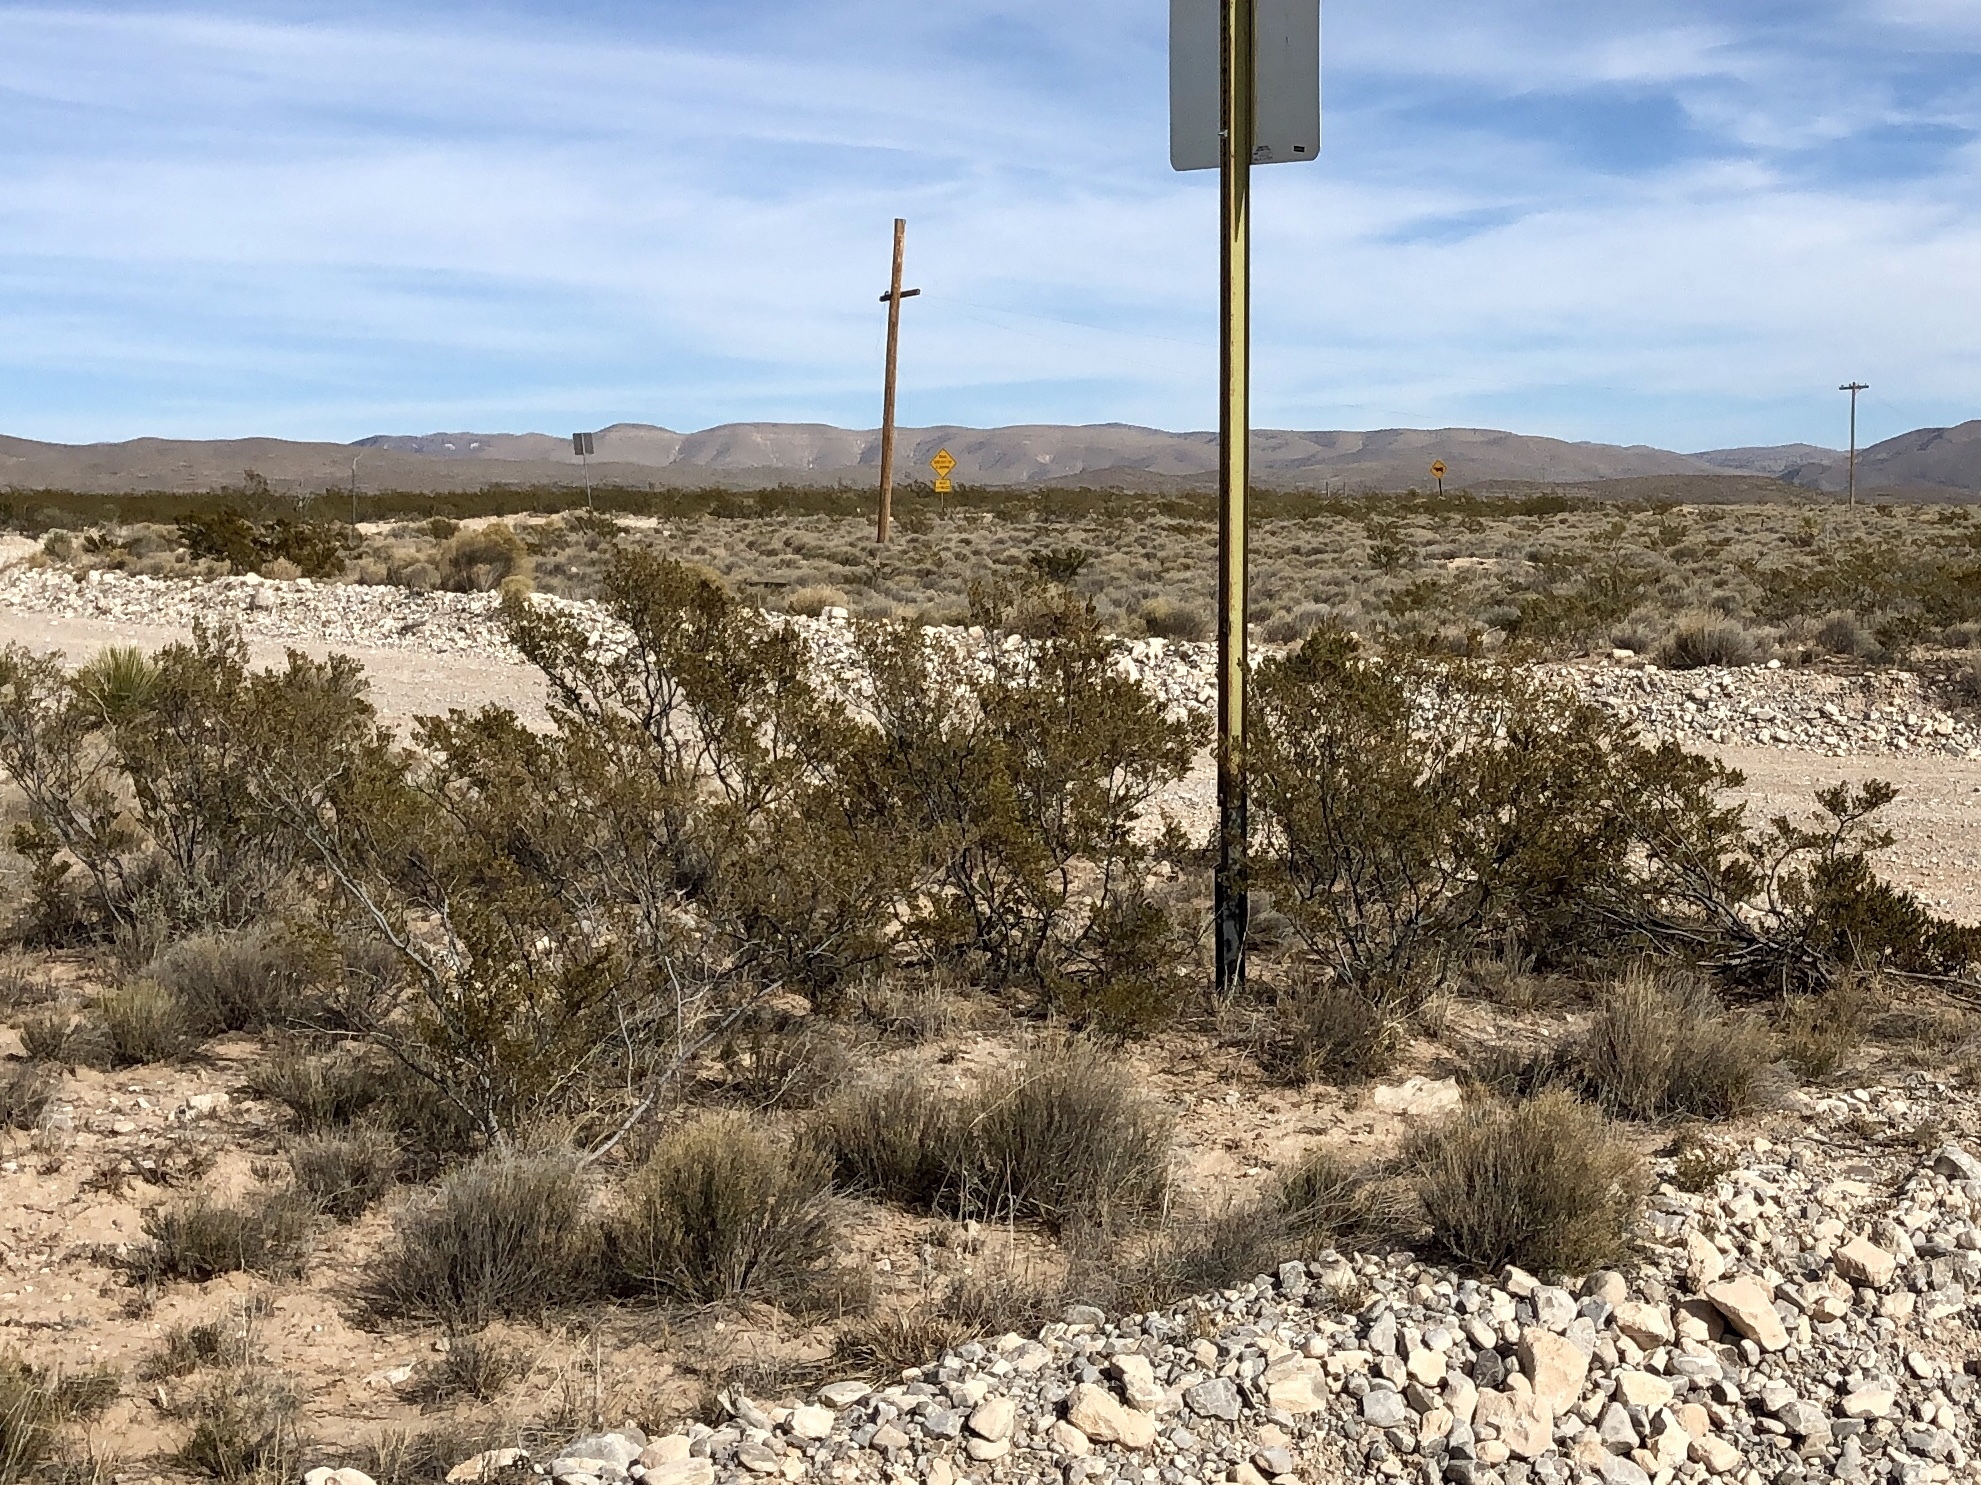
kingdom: Plantae
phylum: Tracheophyta
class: Magnoliopsida
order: Zygophyllales
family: Zygophyllaceae
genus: Larrea
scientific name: Larrea tridentata
